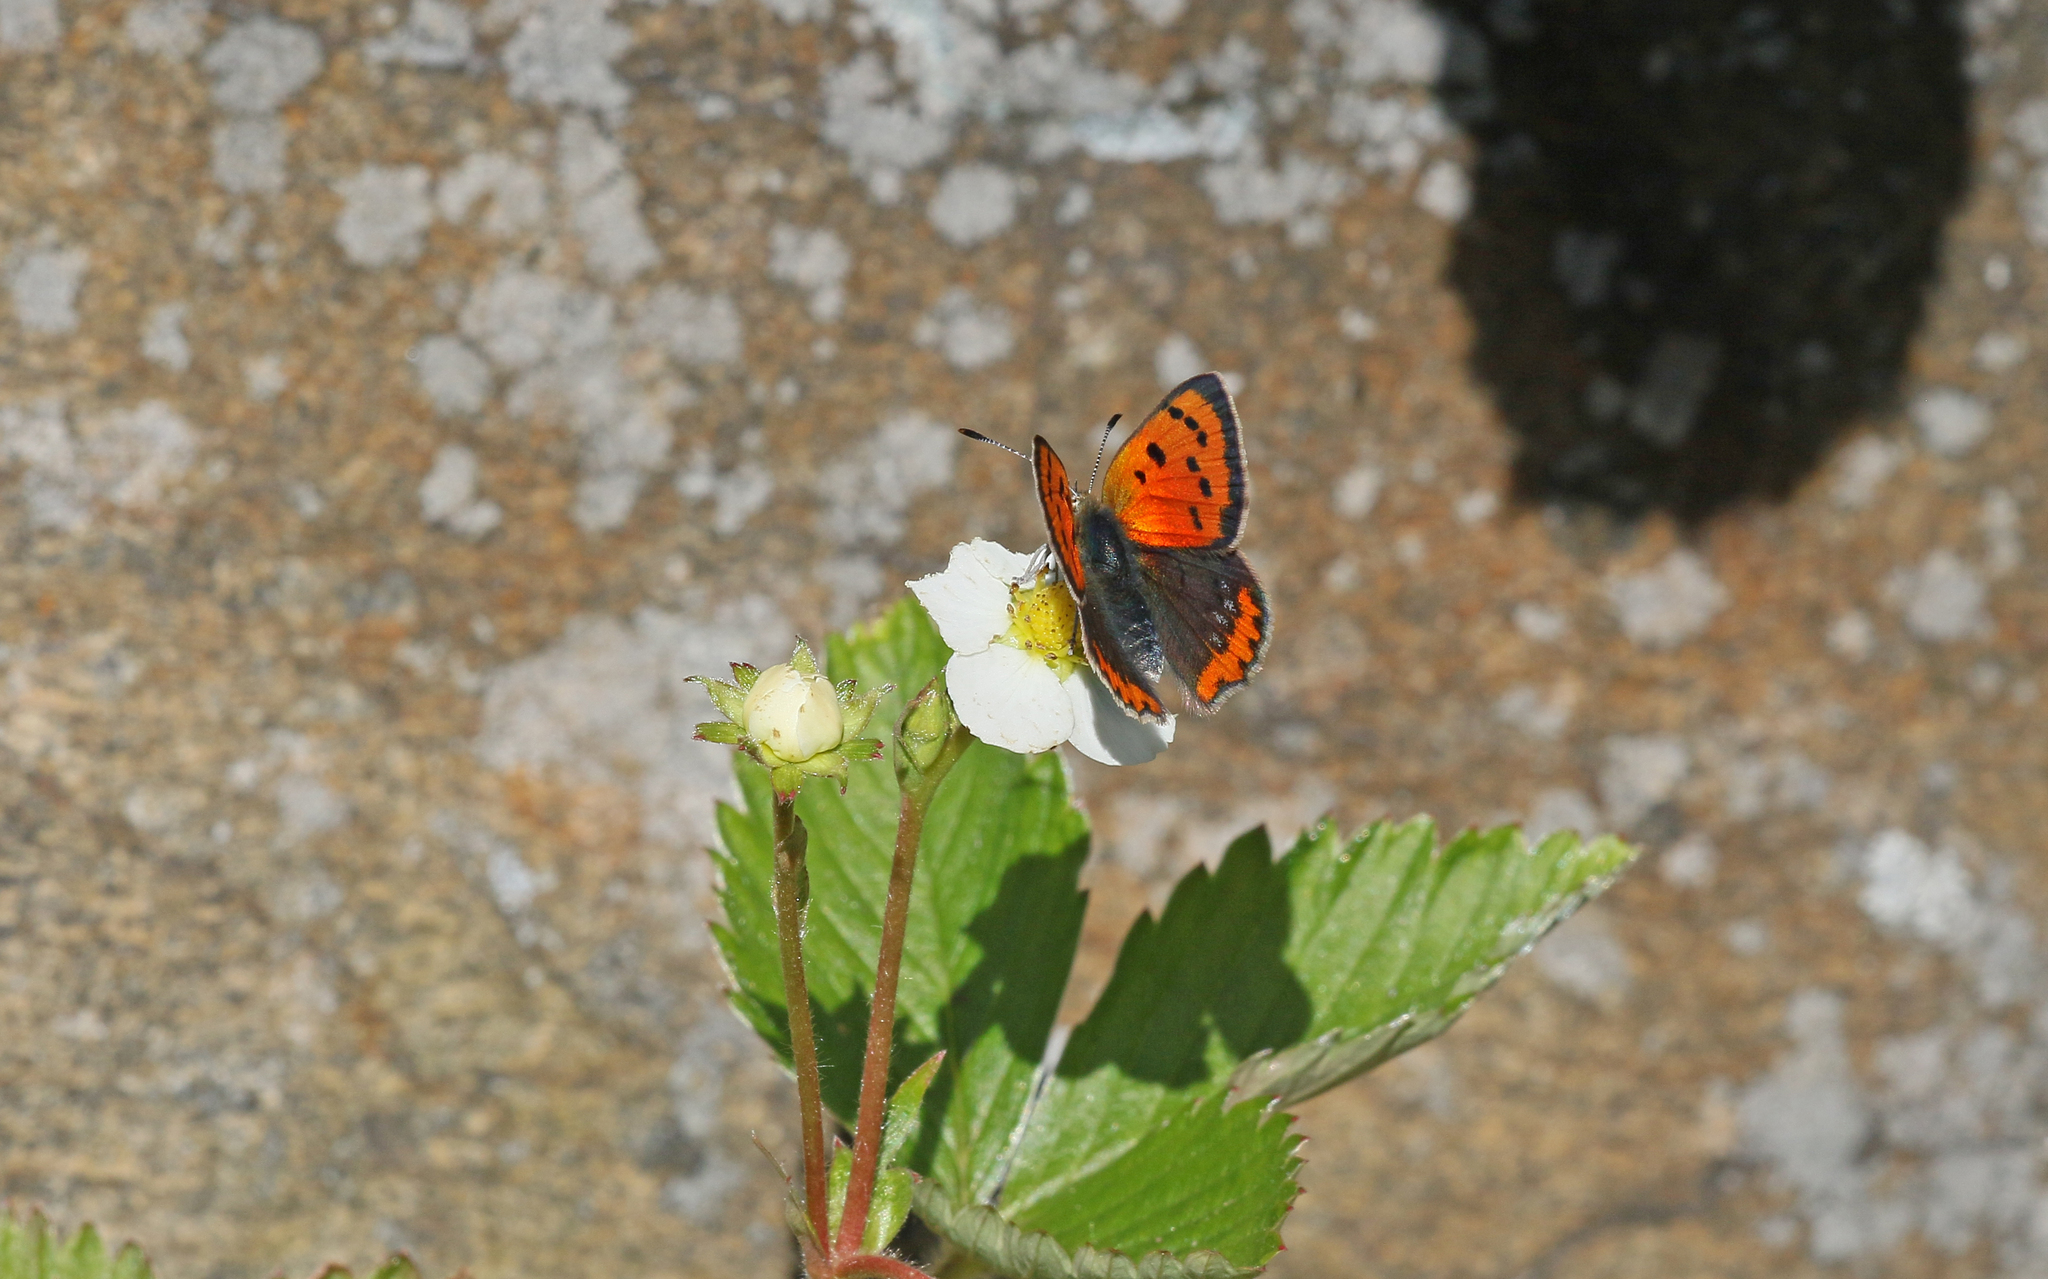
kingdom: Animalia
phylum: Arthropoda
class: Insecta
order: Lepidoptera
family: Lycaenidae
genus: Lycaena
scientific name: Lycaena phlaeas
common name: Small copper
